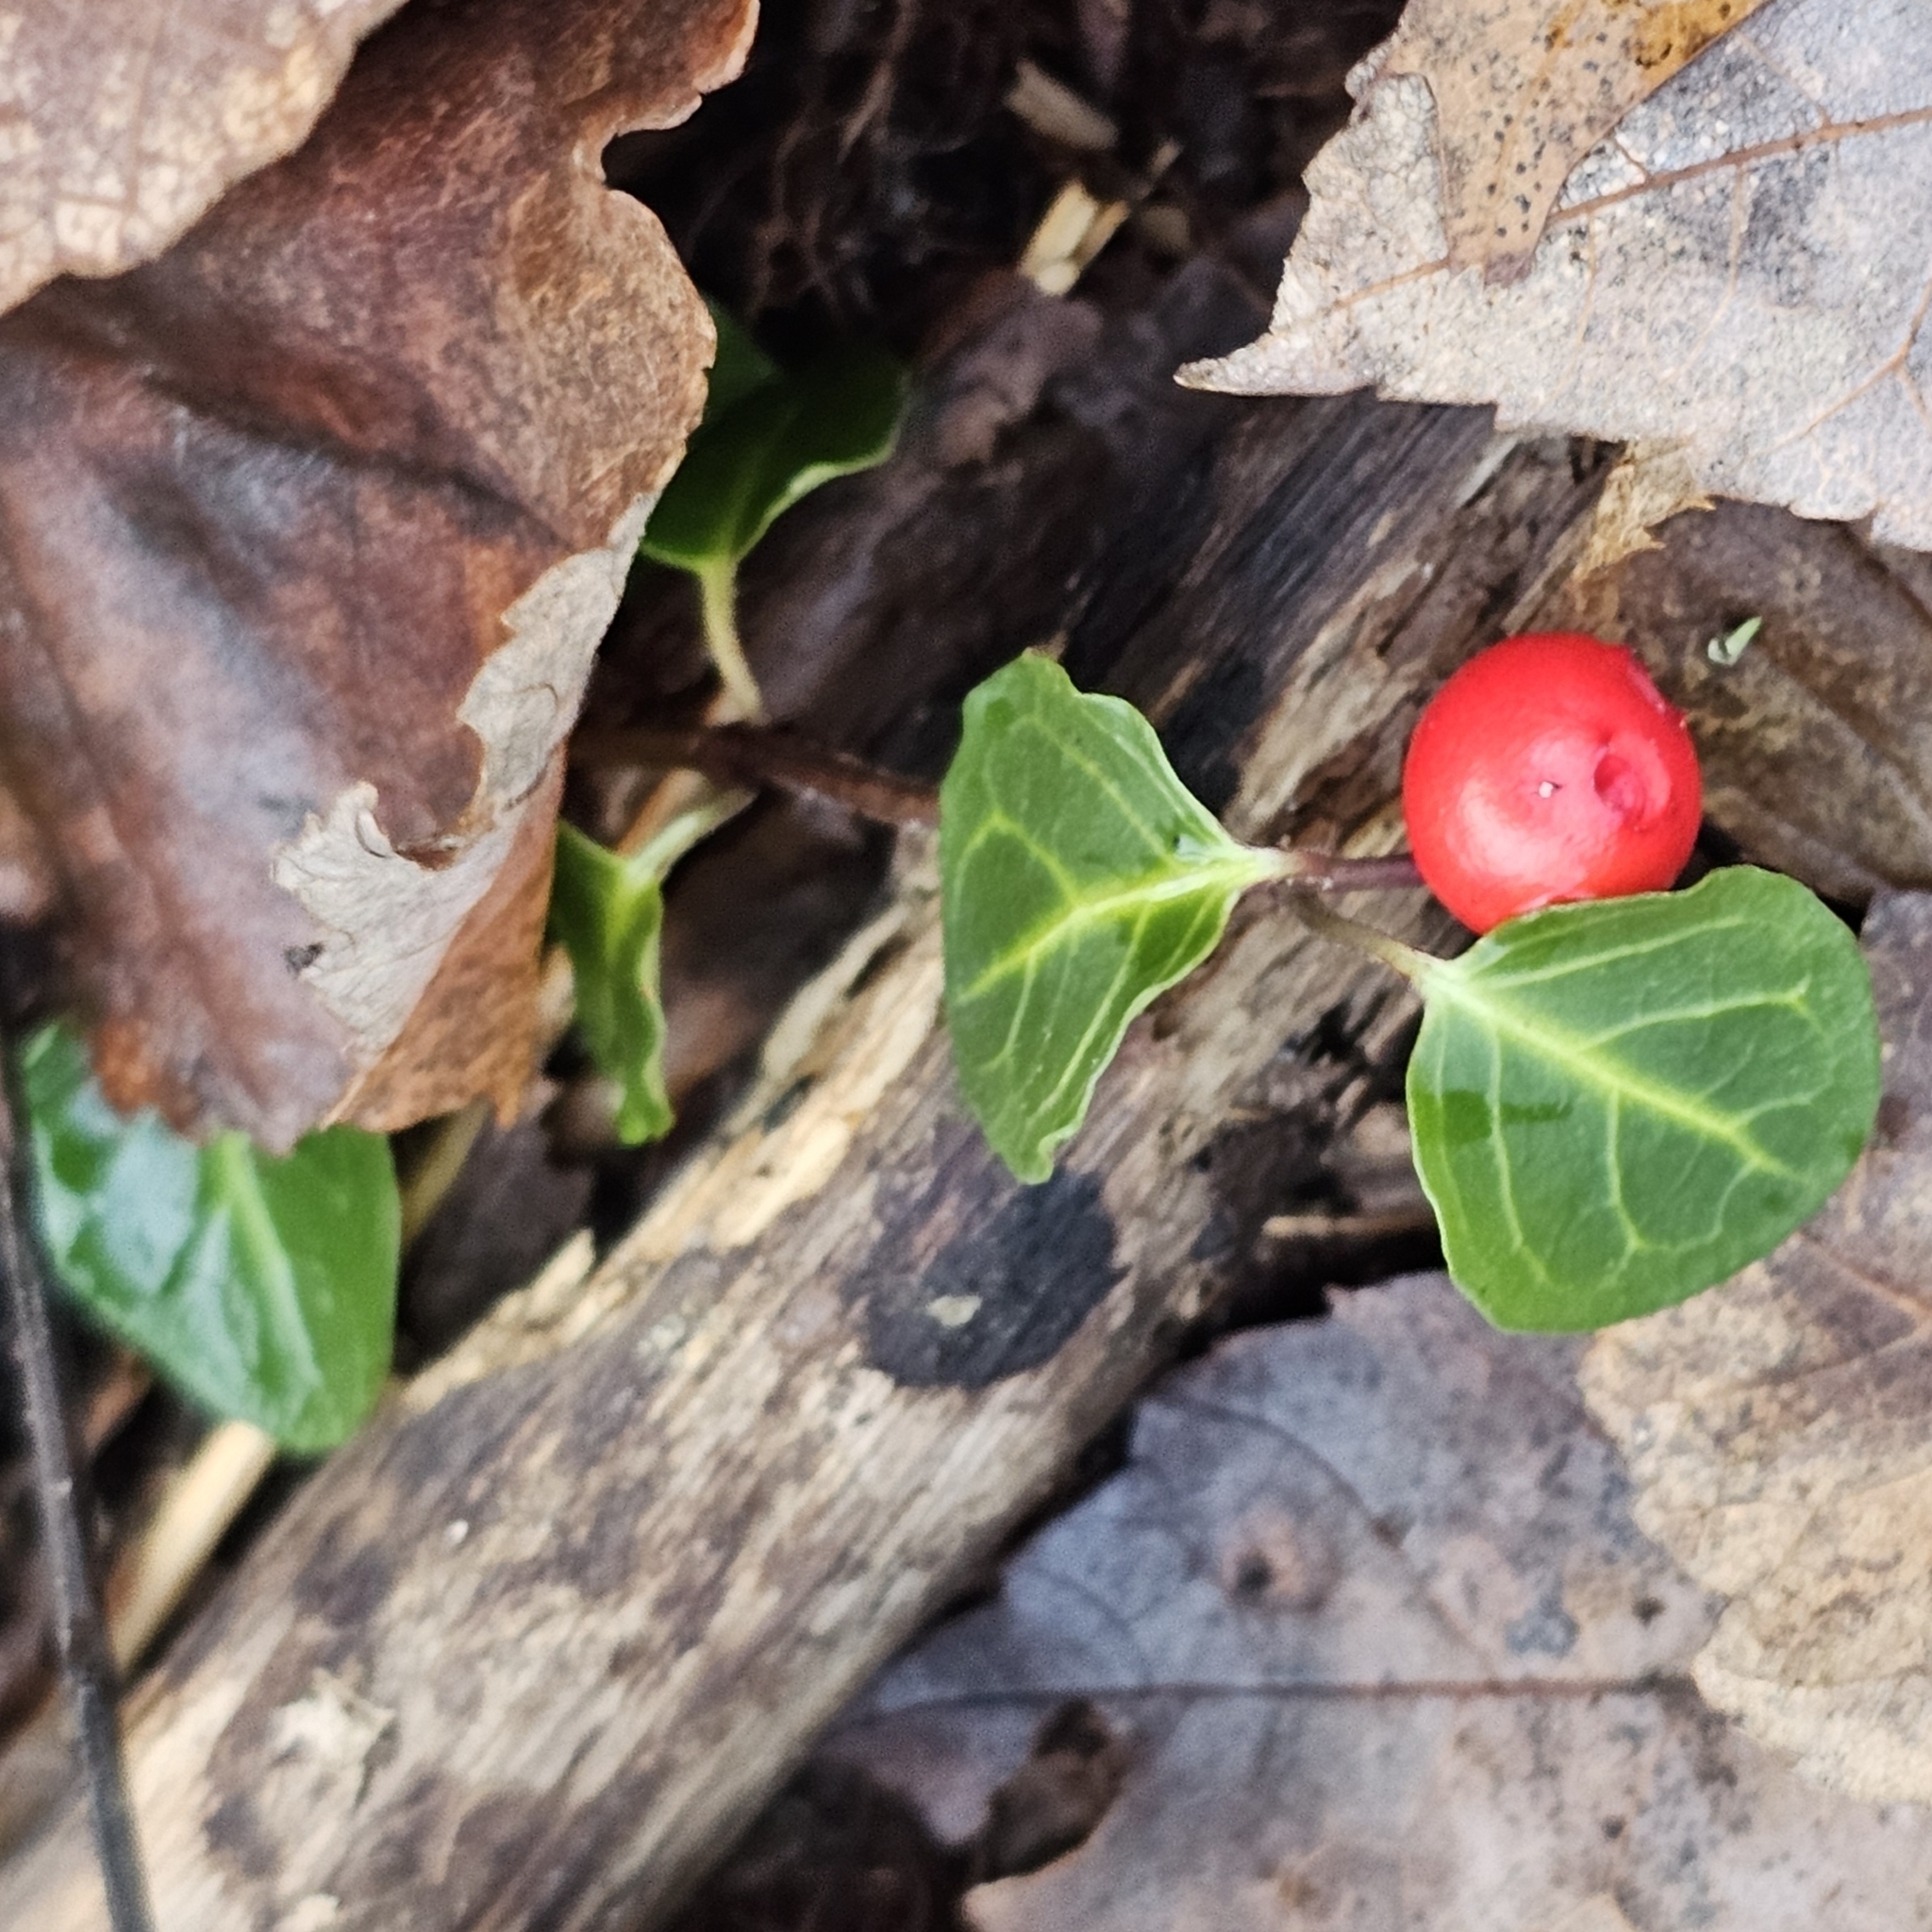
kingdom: Plantae
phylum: Tracheophyta
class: Magnoliopsida
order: Gentianales
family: Rubiaceae
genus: Mitchella
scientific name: Mitchella repens
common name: Partridge-berry
